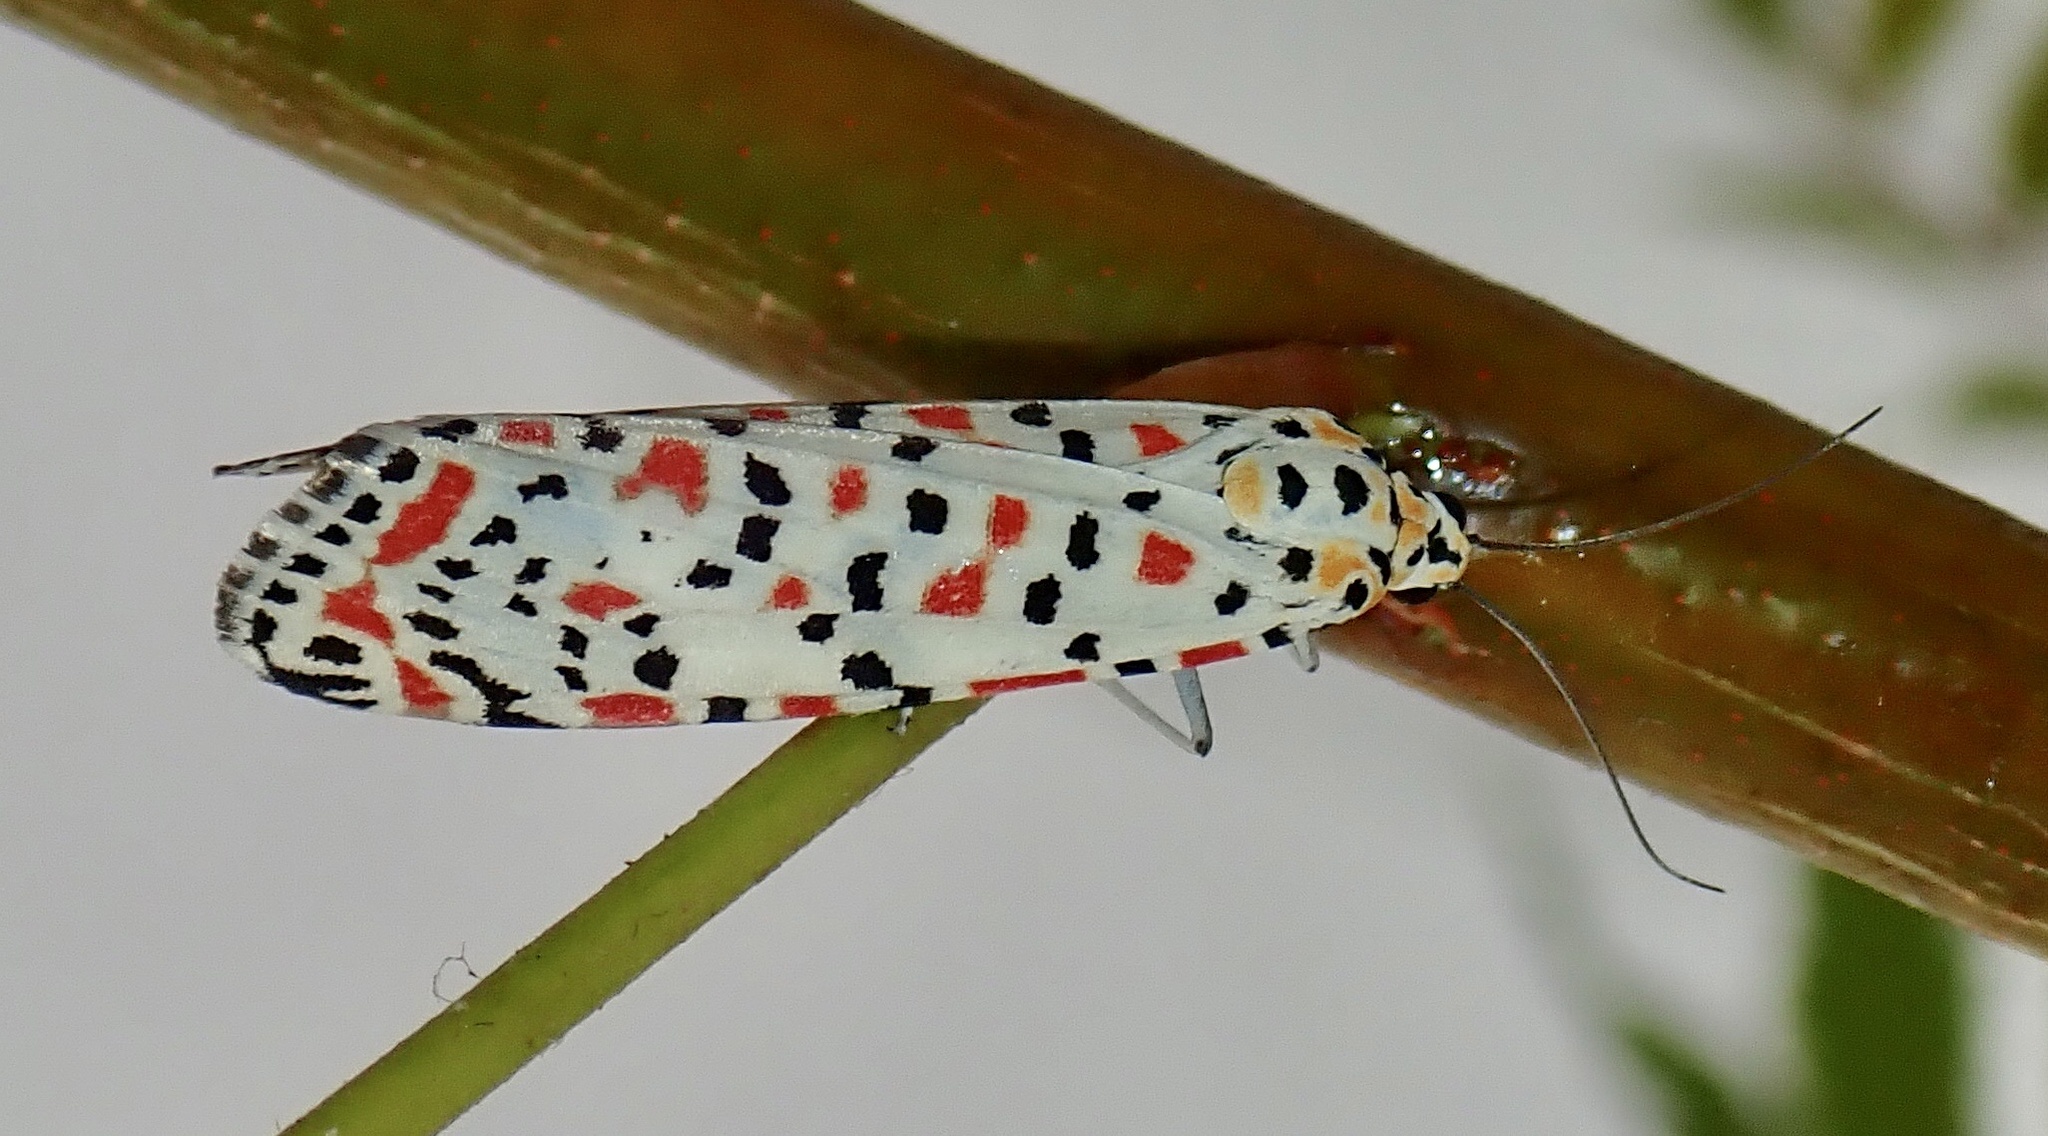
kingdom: Animalia
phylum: Arthropoda
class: Insecta
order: Lepidoptera
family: Erebidae
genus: Utetheisa
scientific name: Utetheisa pulchella
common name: Crimson speckled
